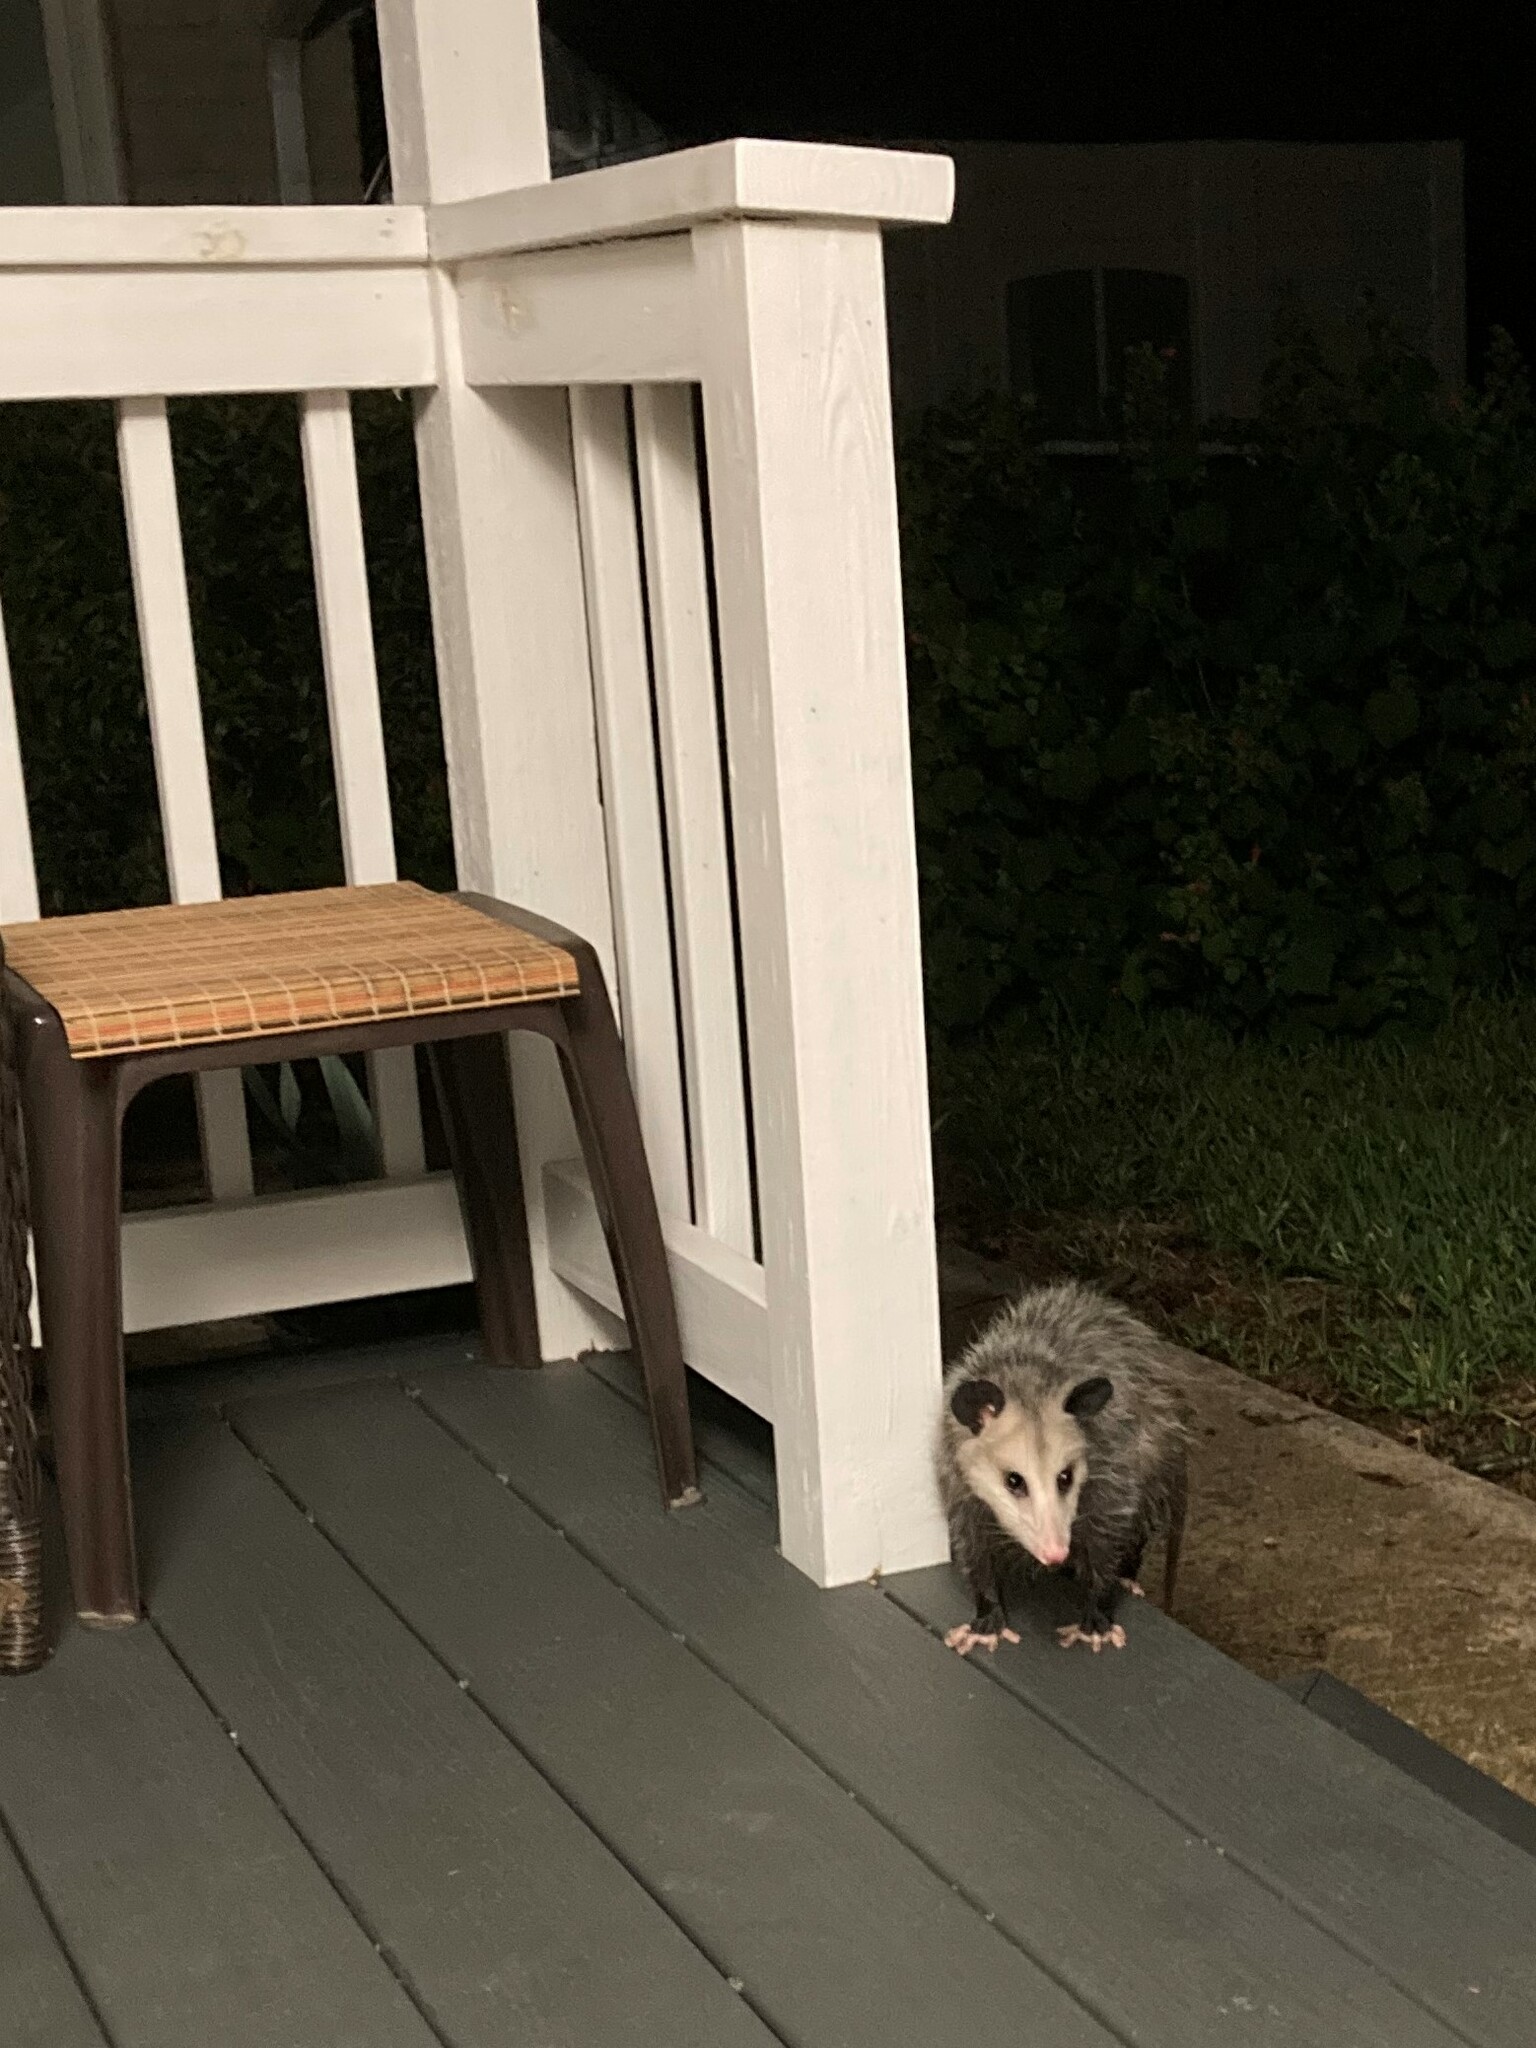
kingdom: Animalia
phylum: Chordata
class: Mammalia
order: Didelphimorphia
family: Didelphidae
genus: Didelphis
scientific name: Didelphis virginiana
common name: Virginia opossum
